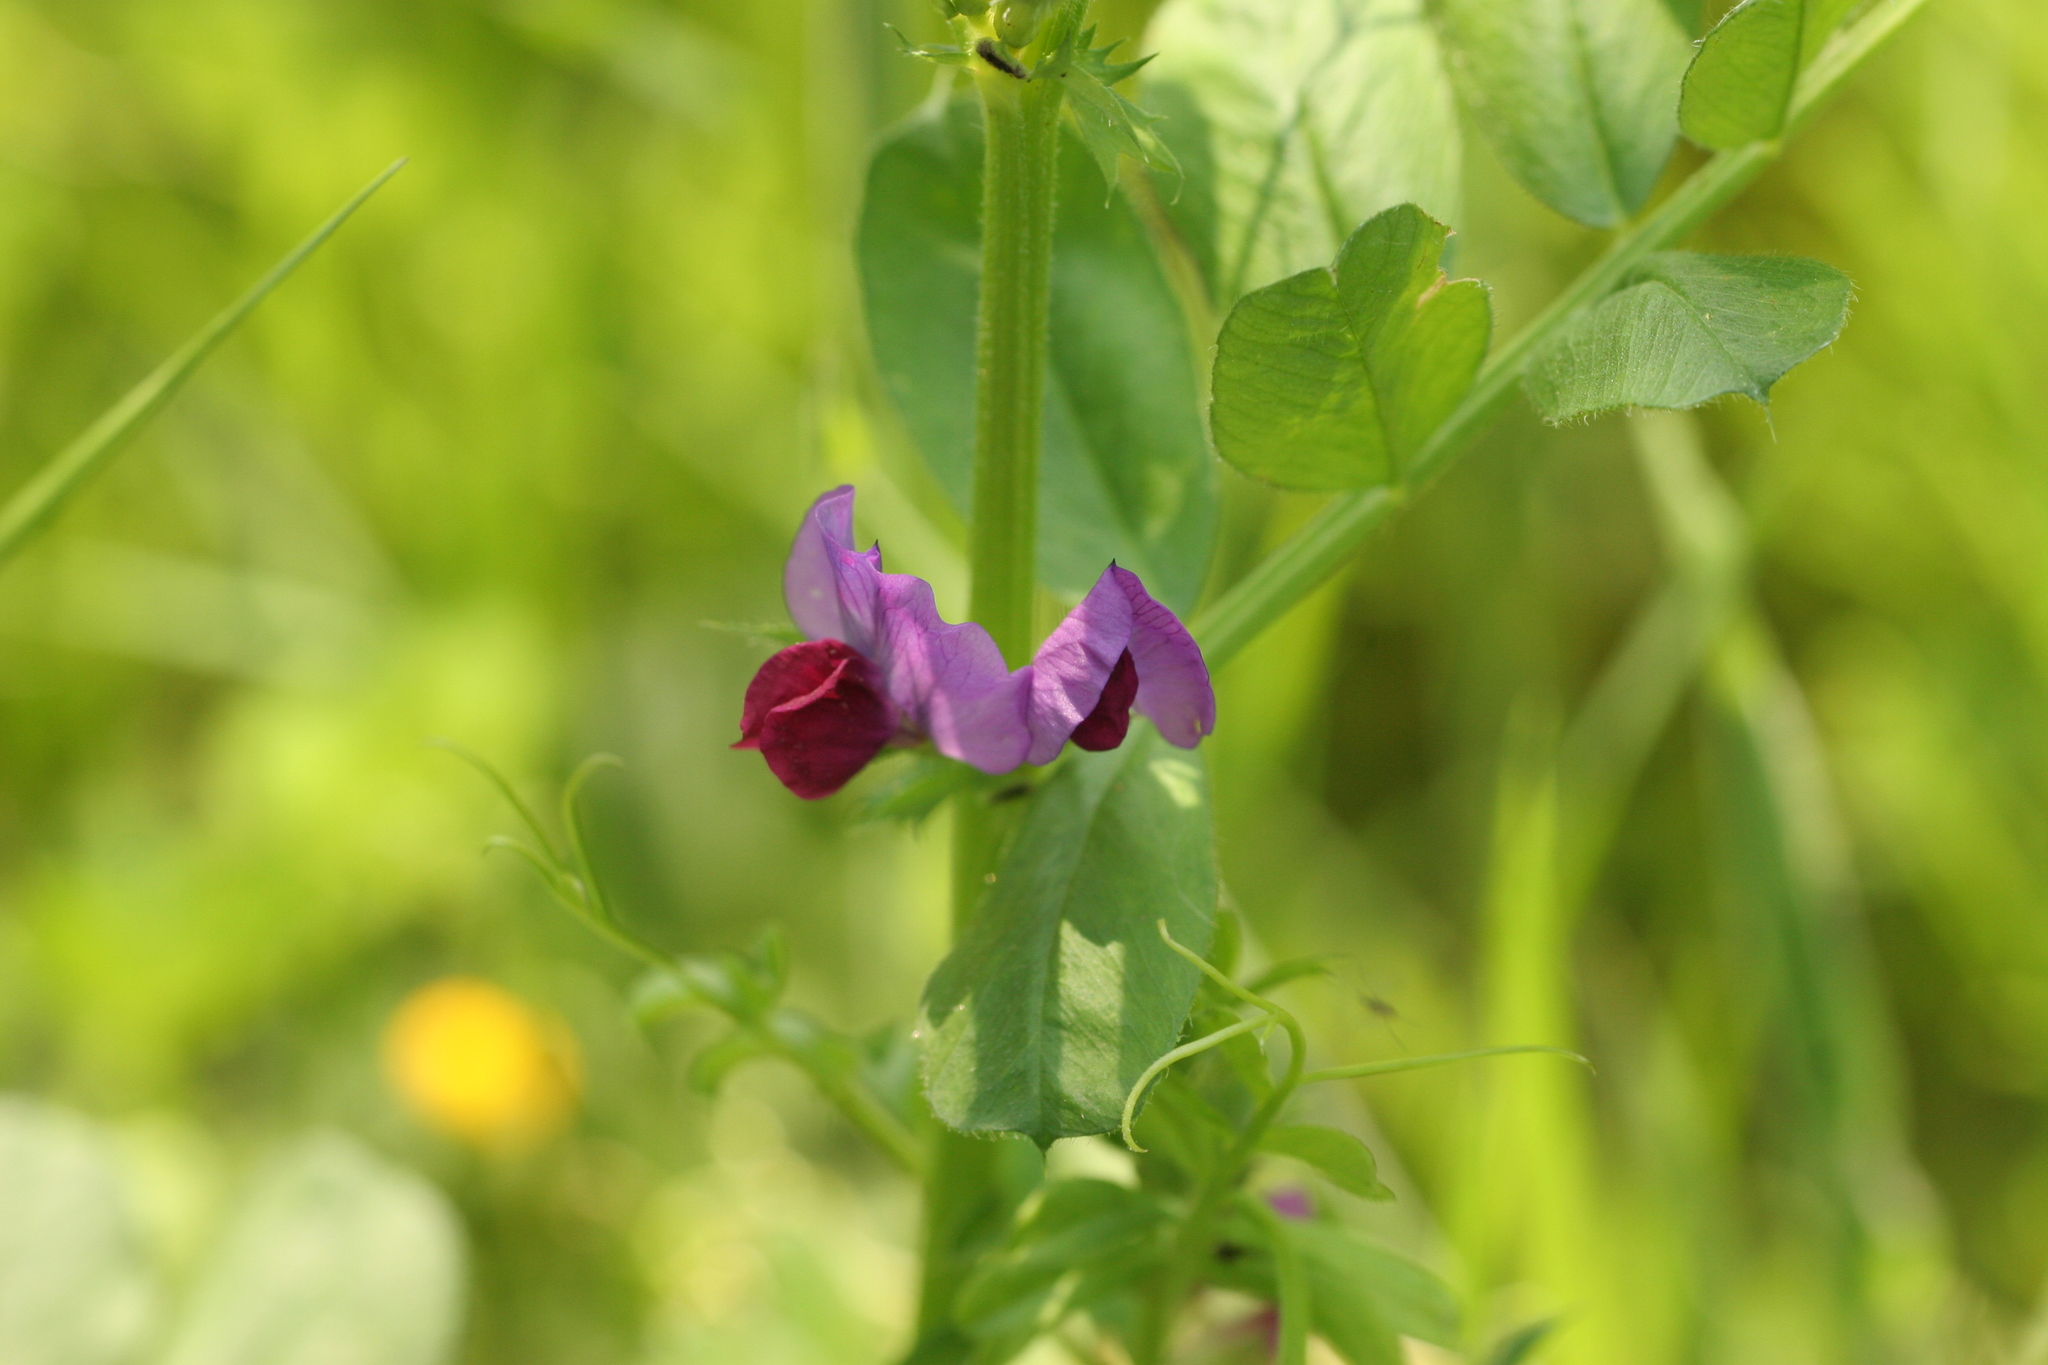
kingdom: Plantae
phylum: Tracheophyta
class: Magnoliopsida
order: Fabales
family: Fabaceae
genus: Vicia
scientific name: Vicia sativa
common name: Garden vetch
